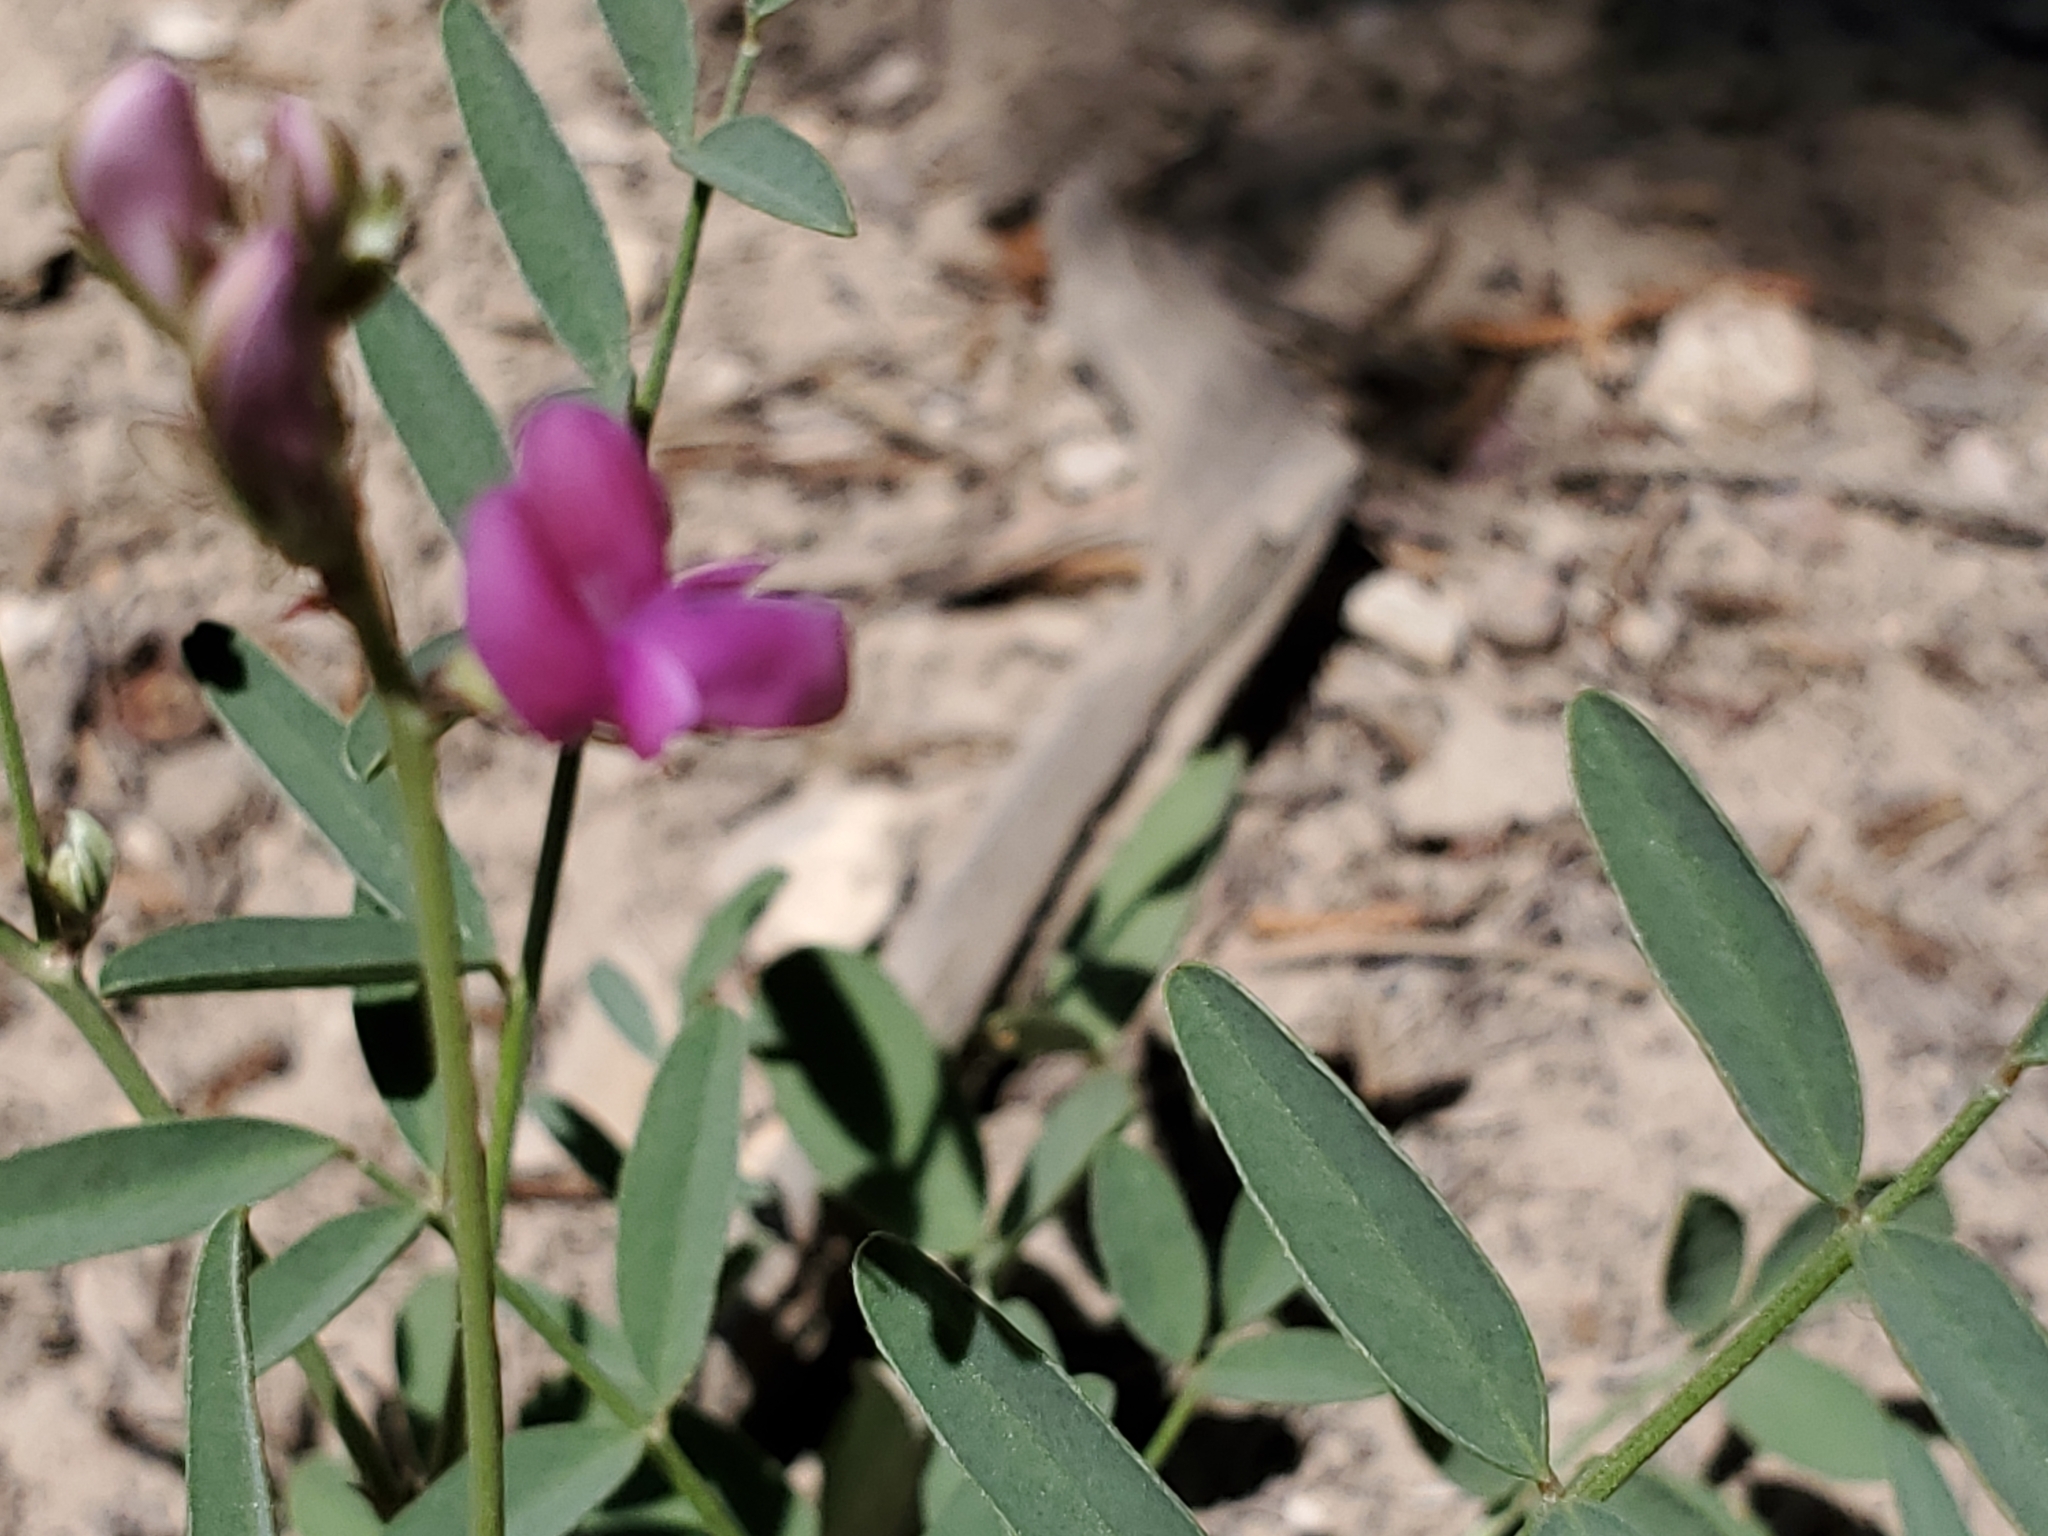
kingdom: Plantae
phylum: Tracheophyta
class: Magnoliopsida
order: Fabales
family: Fabaceae
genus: Hedysarum
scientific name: Hedysarum boreale
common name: Northern sweet-vetch
